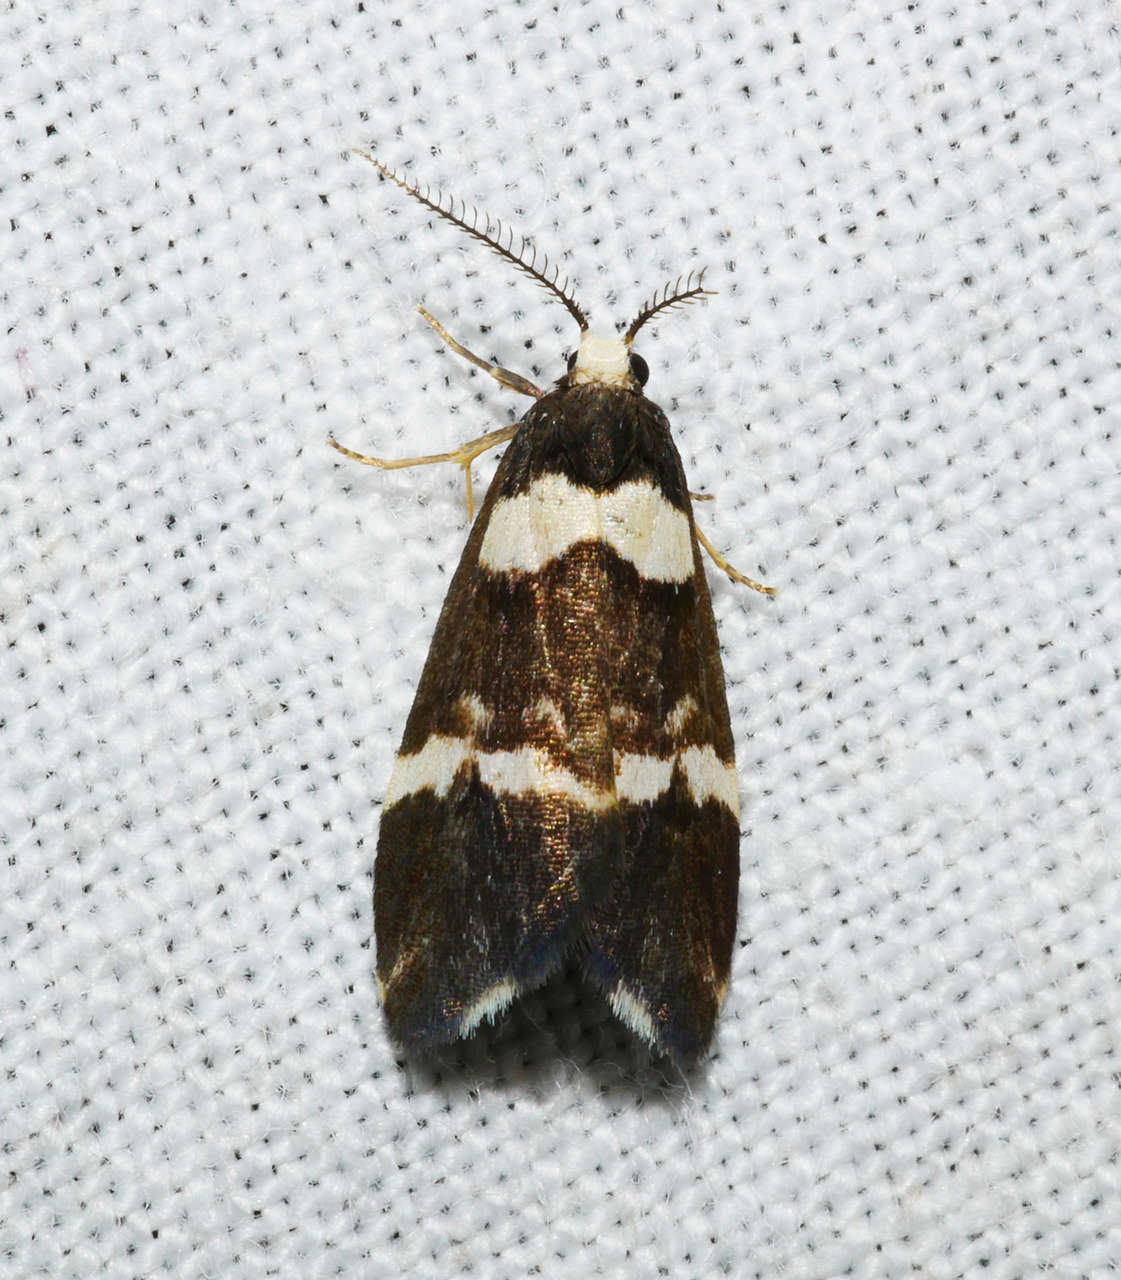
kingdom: Animalia
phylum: Arthropoda
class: Insecta
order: Lepidoptera
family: Erebidae
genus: Thallarcha
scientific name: Thallarcha phalarota
